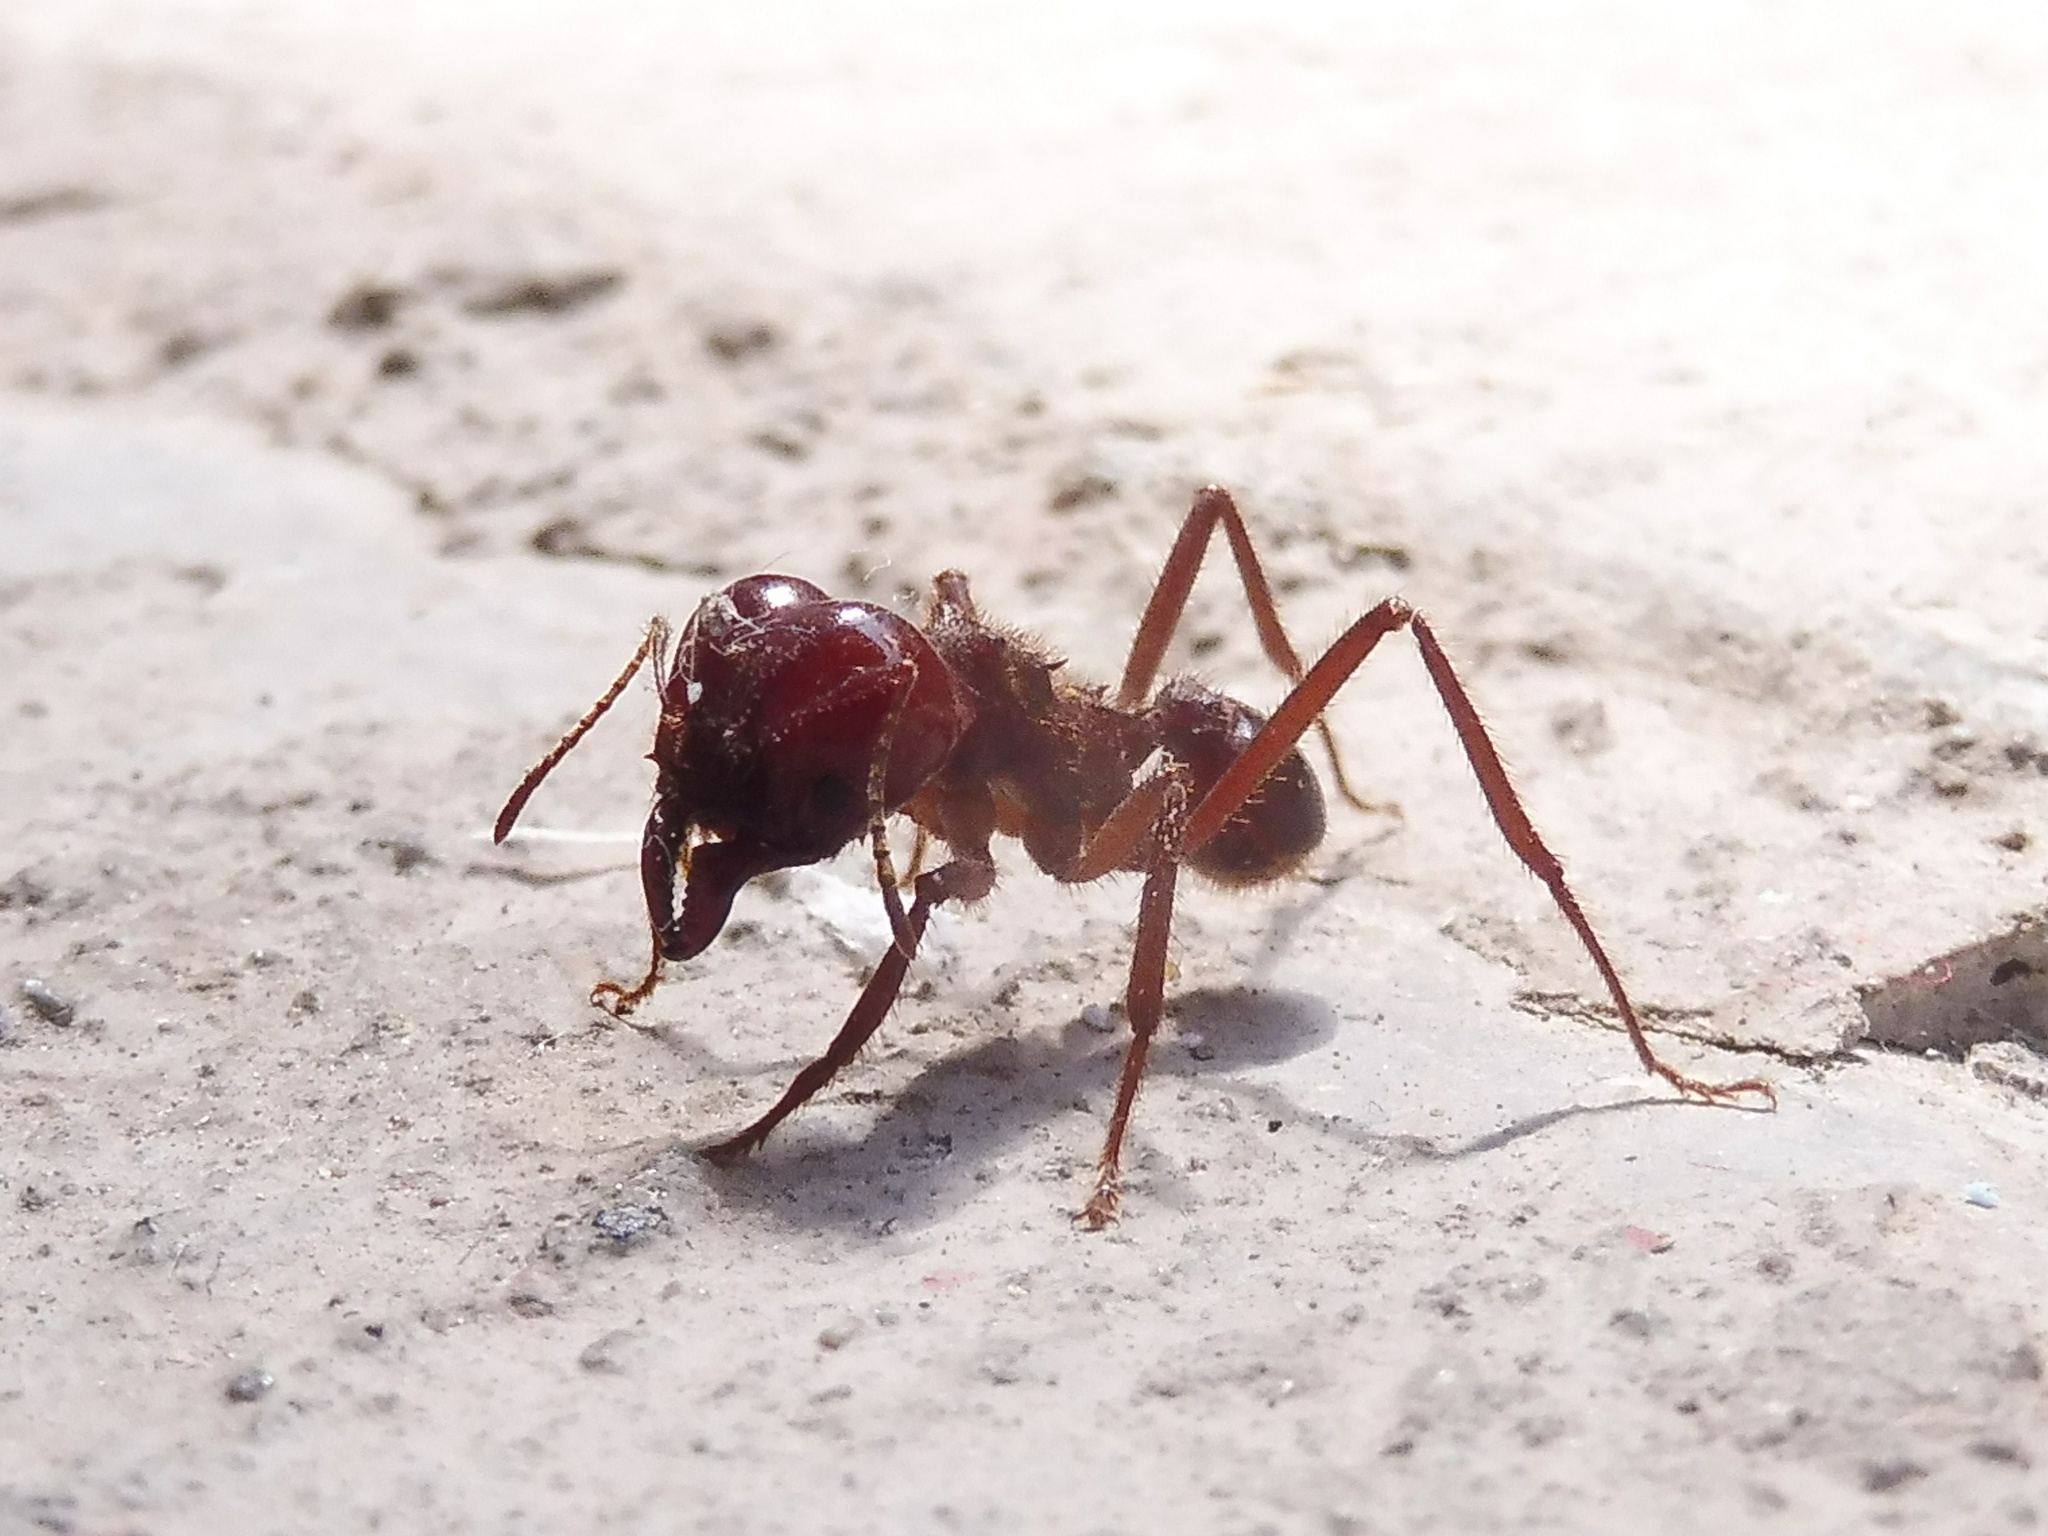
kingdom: Animalia
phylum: Arthropoda
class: Insecta
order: Hymenoptera
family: Formicidae
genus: Atta
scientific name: Atta mexicana
